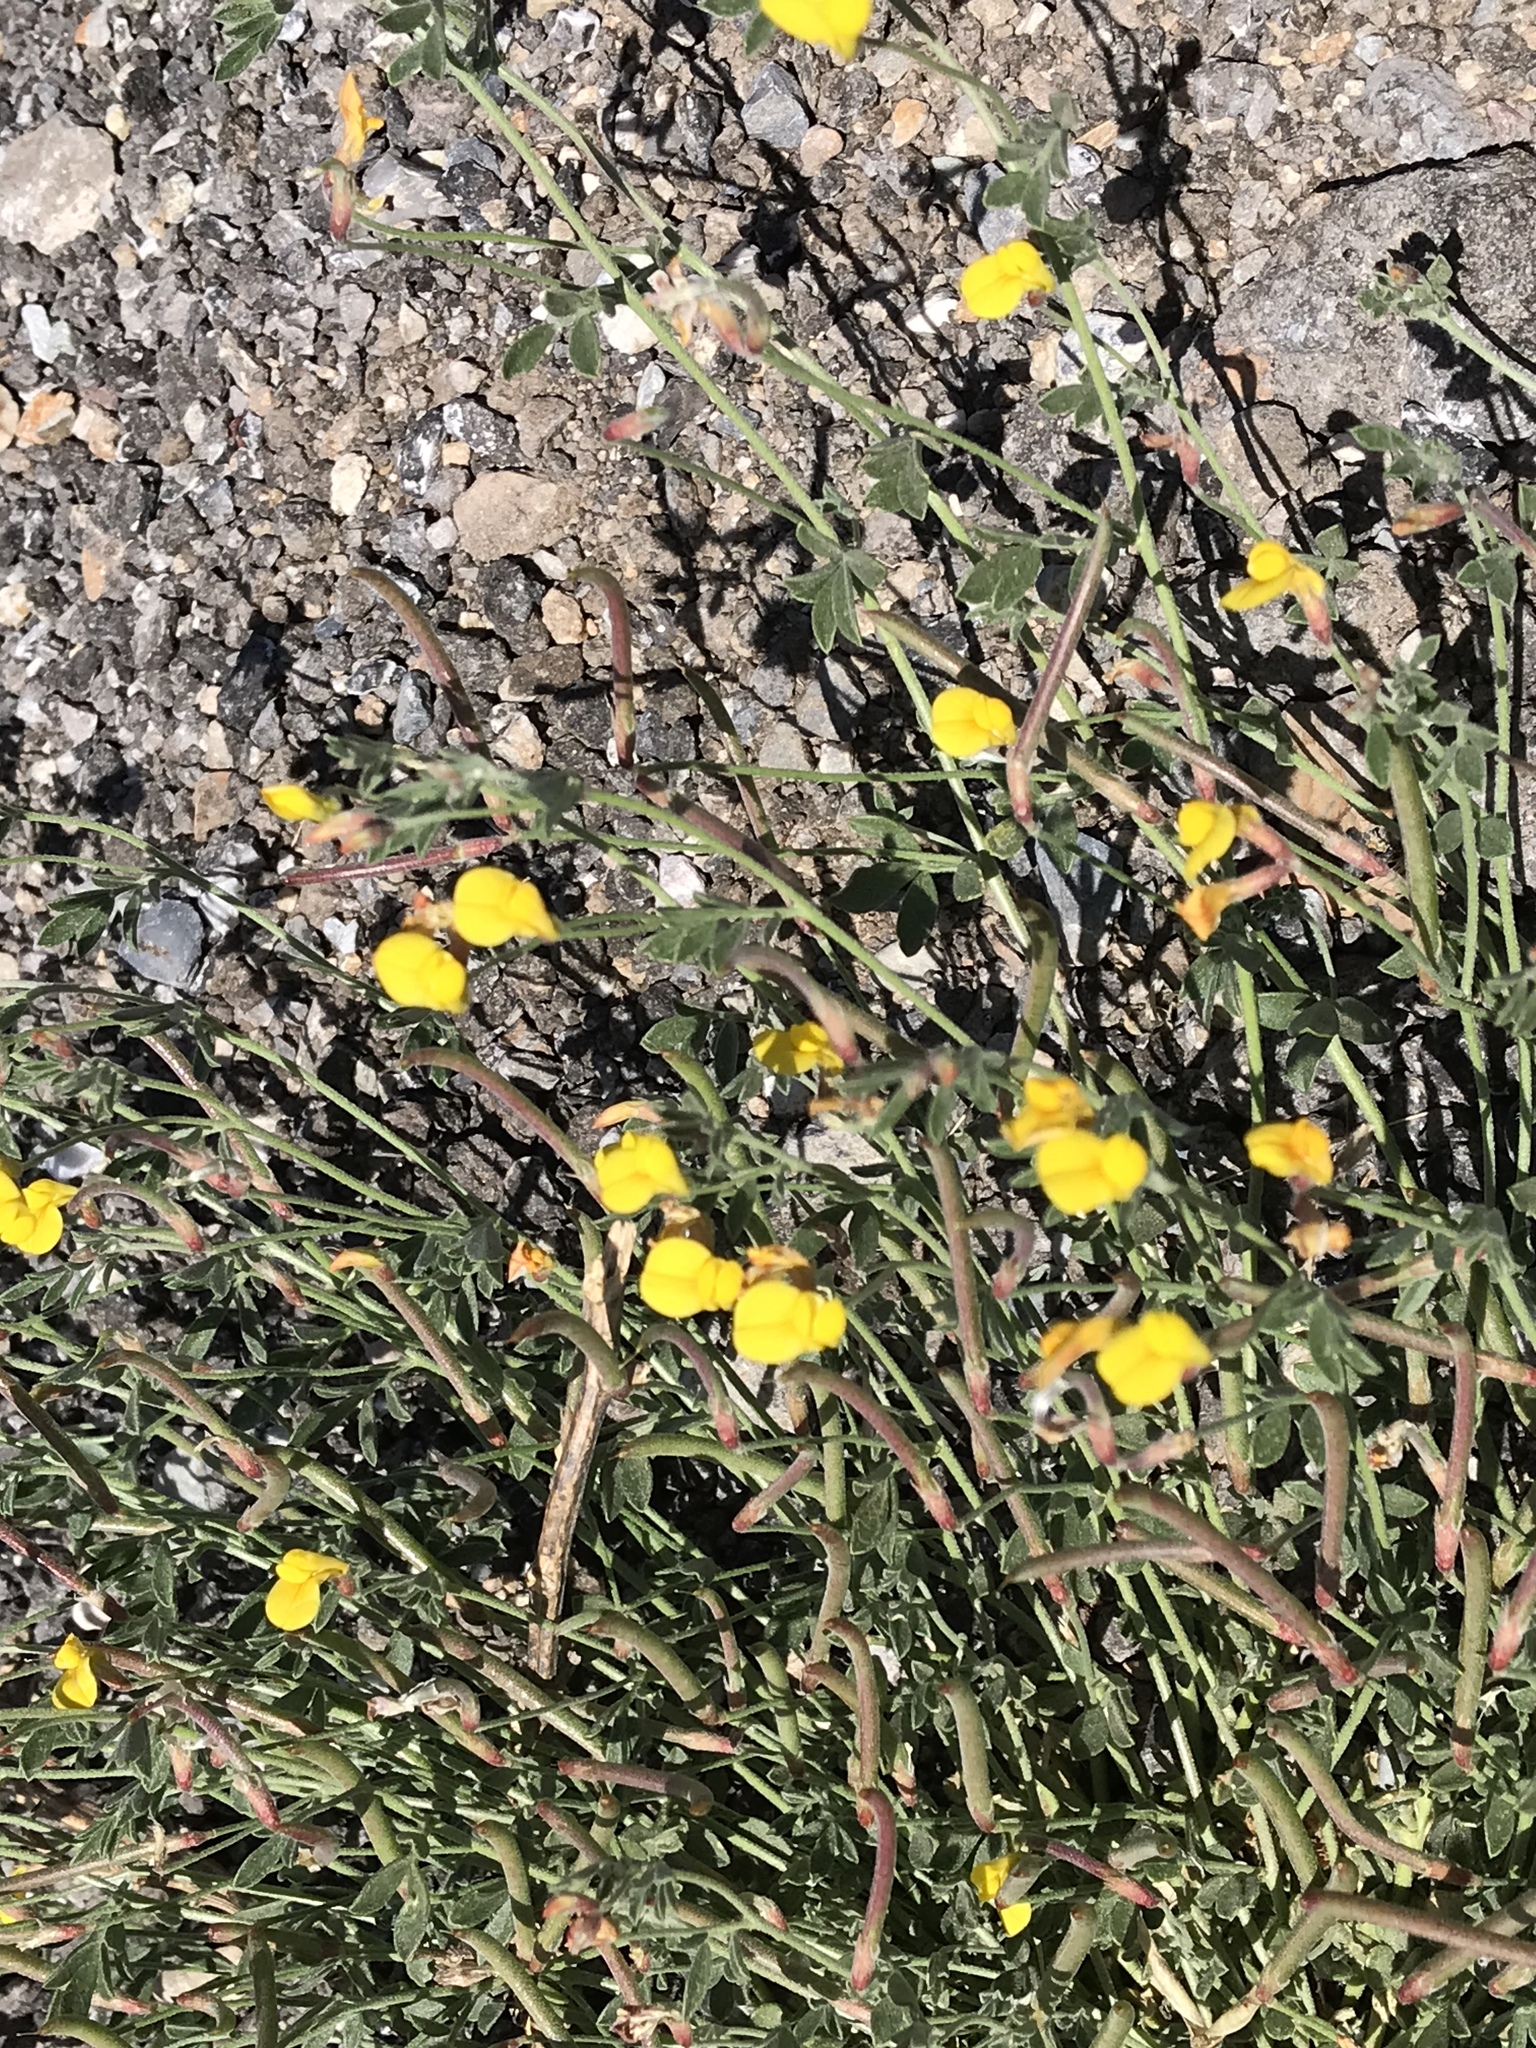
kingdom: Plantae
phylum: Tracheophyta
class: Magnoliopsida
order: Fabales
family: Fabaceae
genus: Acmispon
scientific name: Acmispon oroboides
